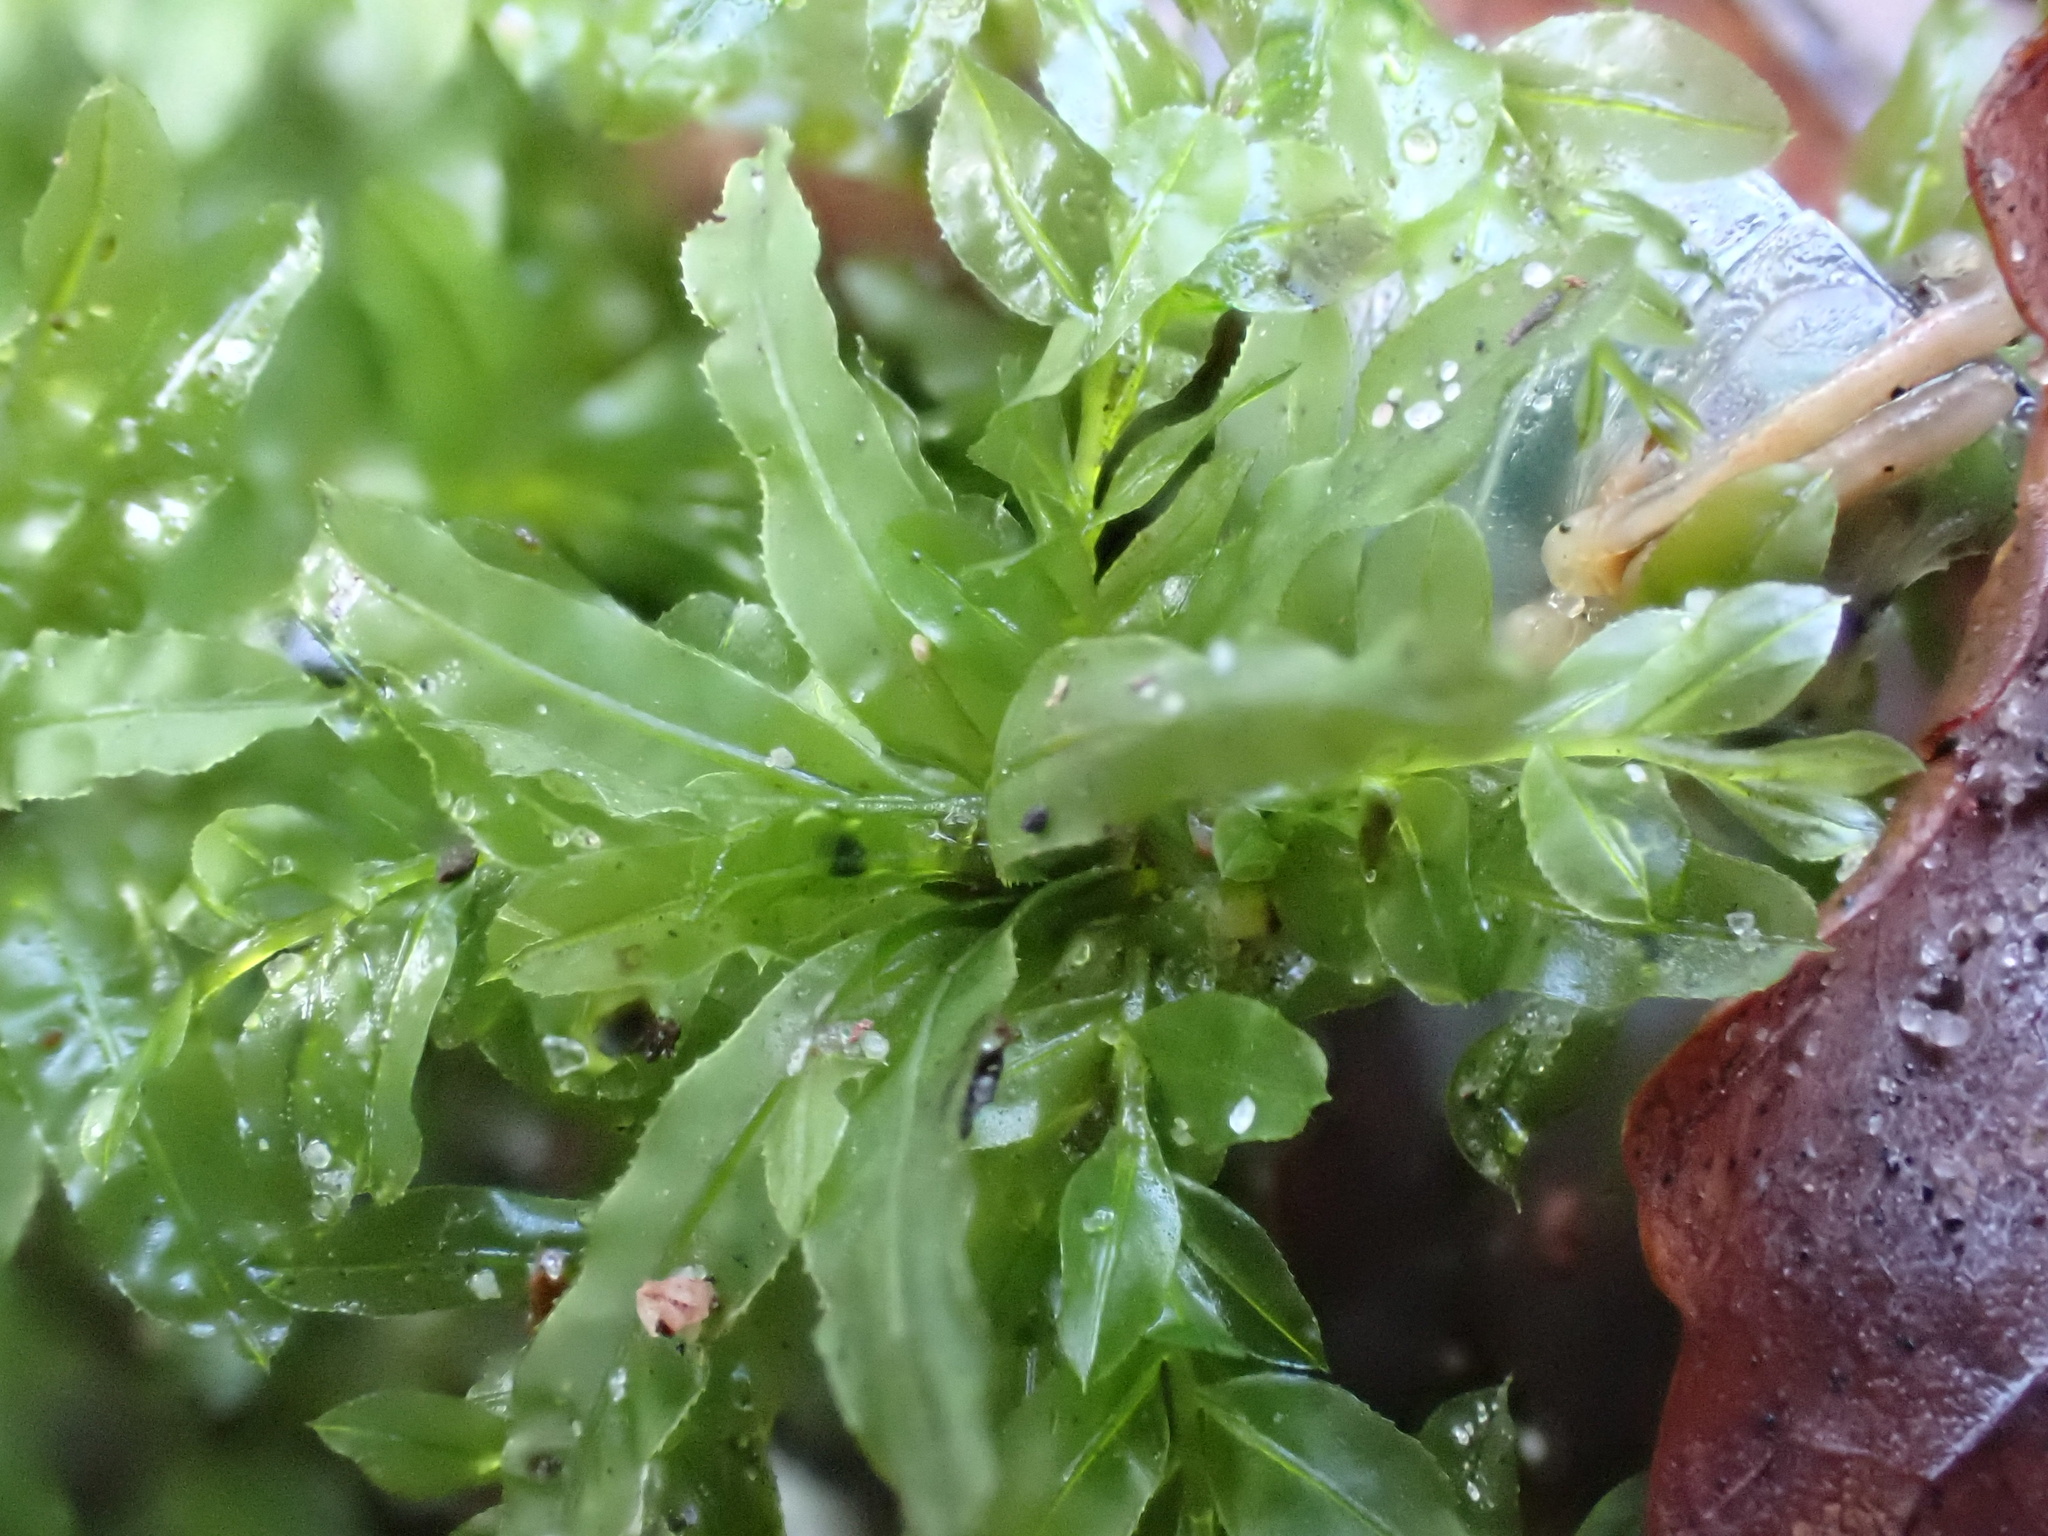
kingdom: Plantae
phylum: Bryophyta
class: Bryopsida
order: Bryales
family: Mniaceae
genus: Plagiomnium
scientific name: Plagiomnium undulatum
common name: Hart's-tongue thyme-moss
